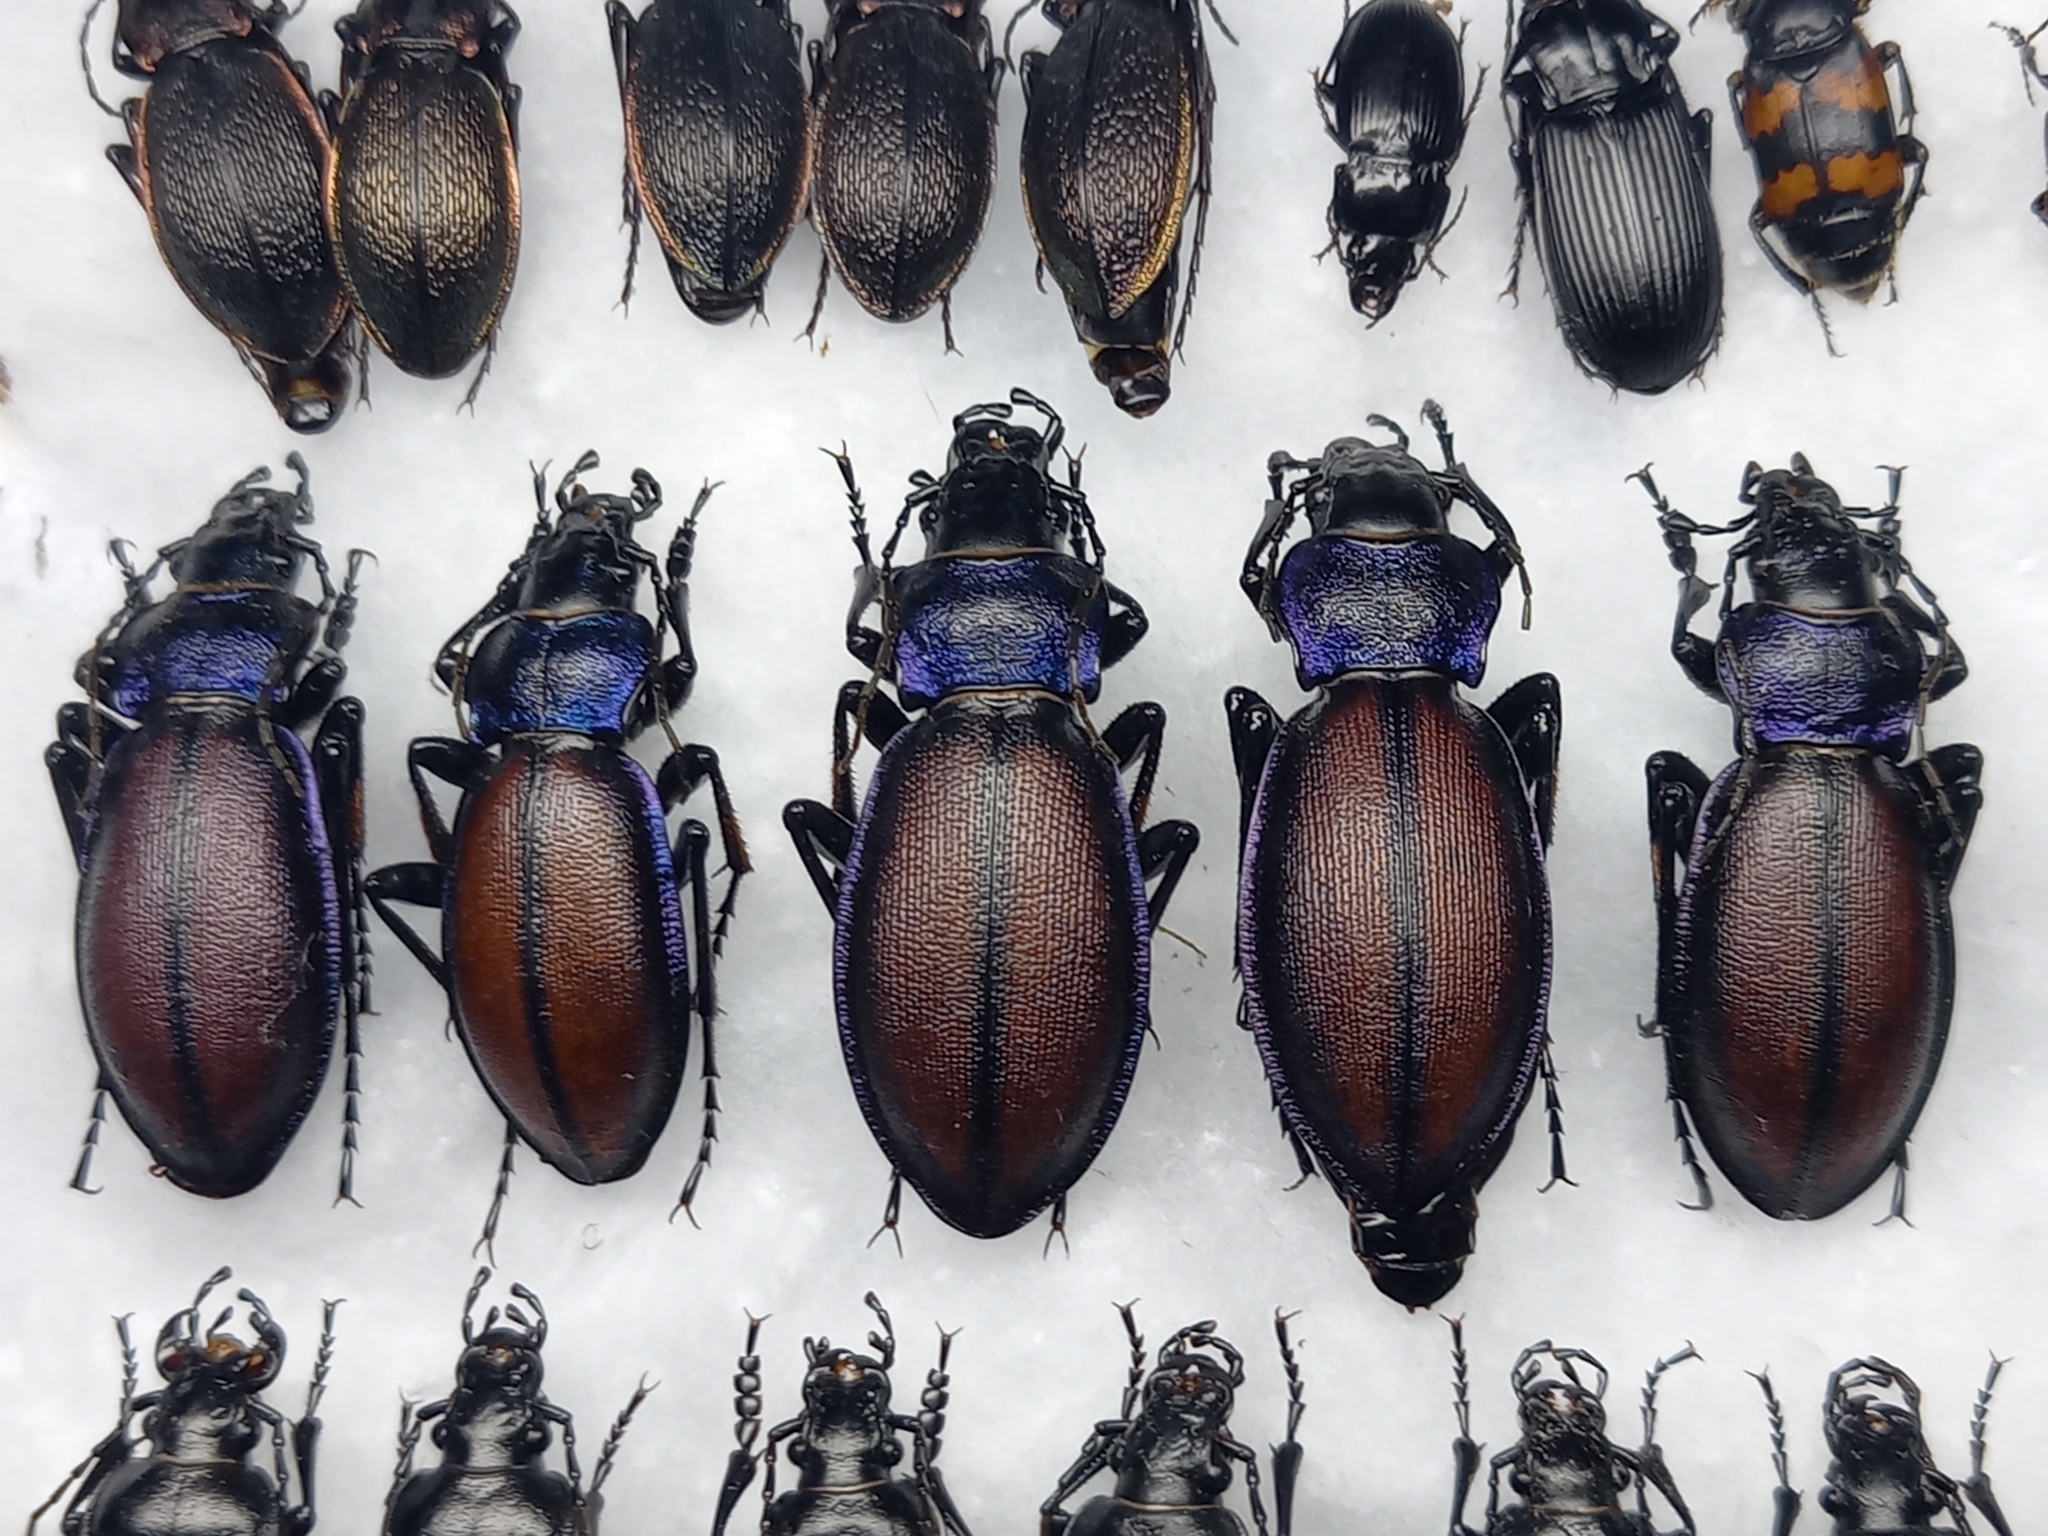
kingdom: Animalia
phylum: Arthropoda
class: Insecta
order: Coleoptera
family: Carabidae
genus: Carabus
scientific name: Carabus schoenherri
